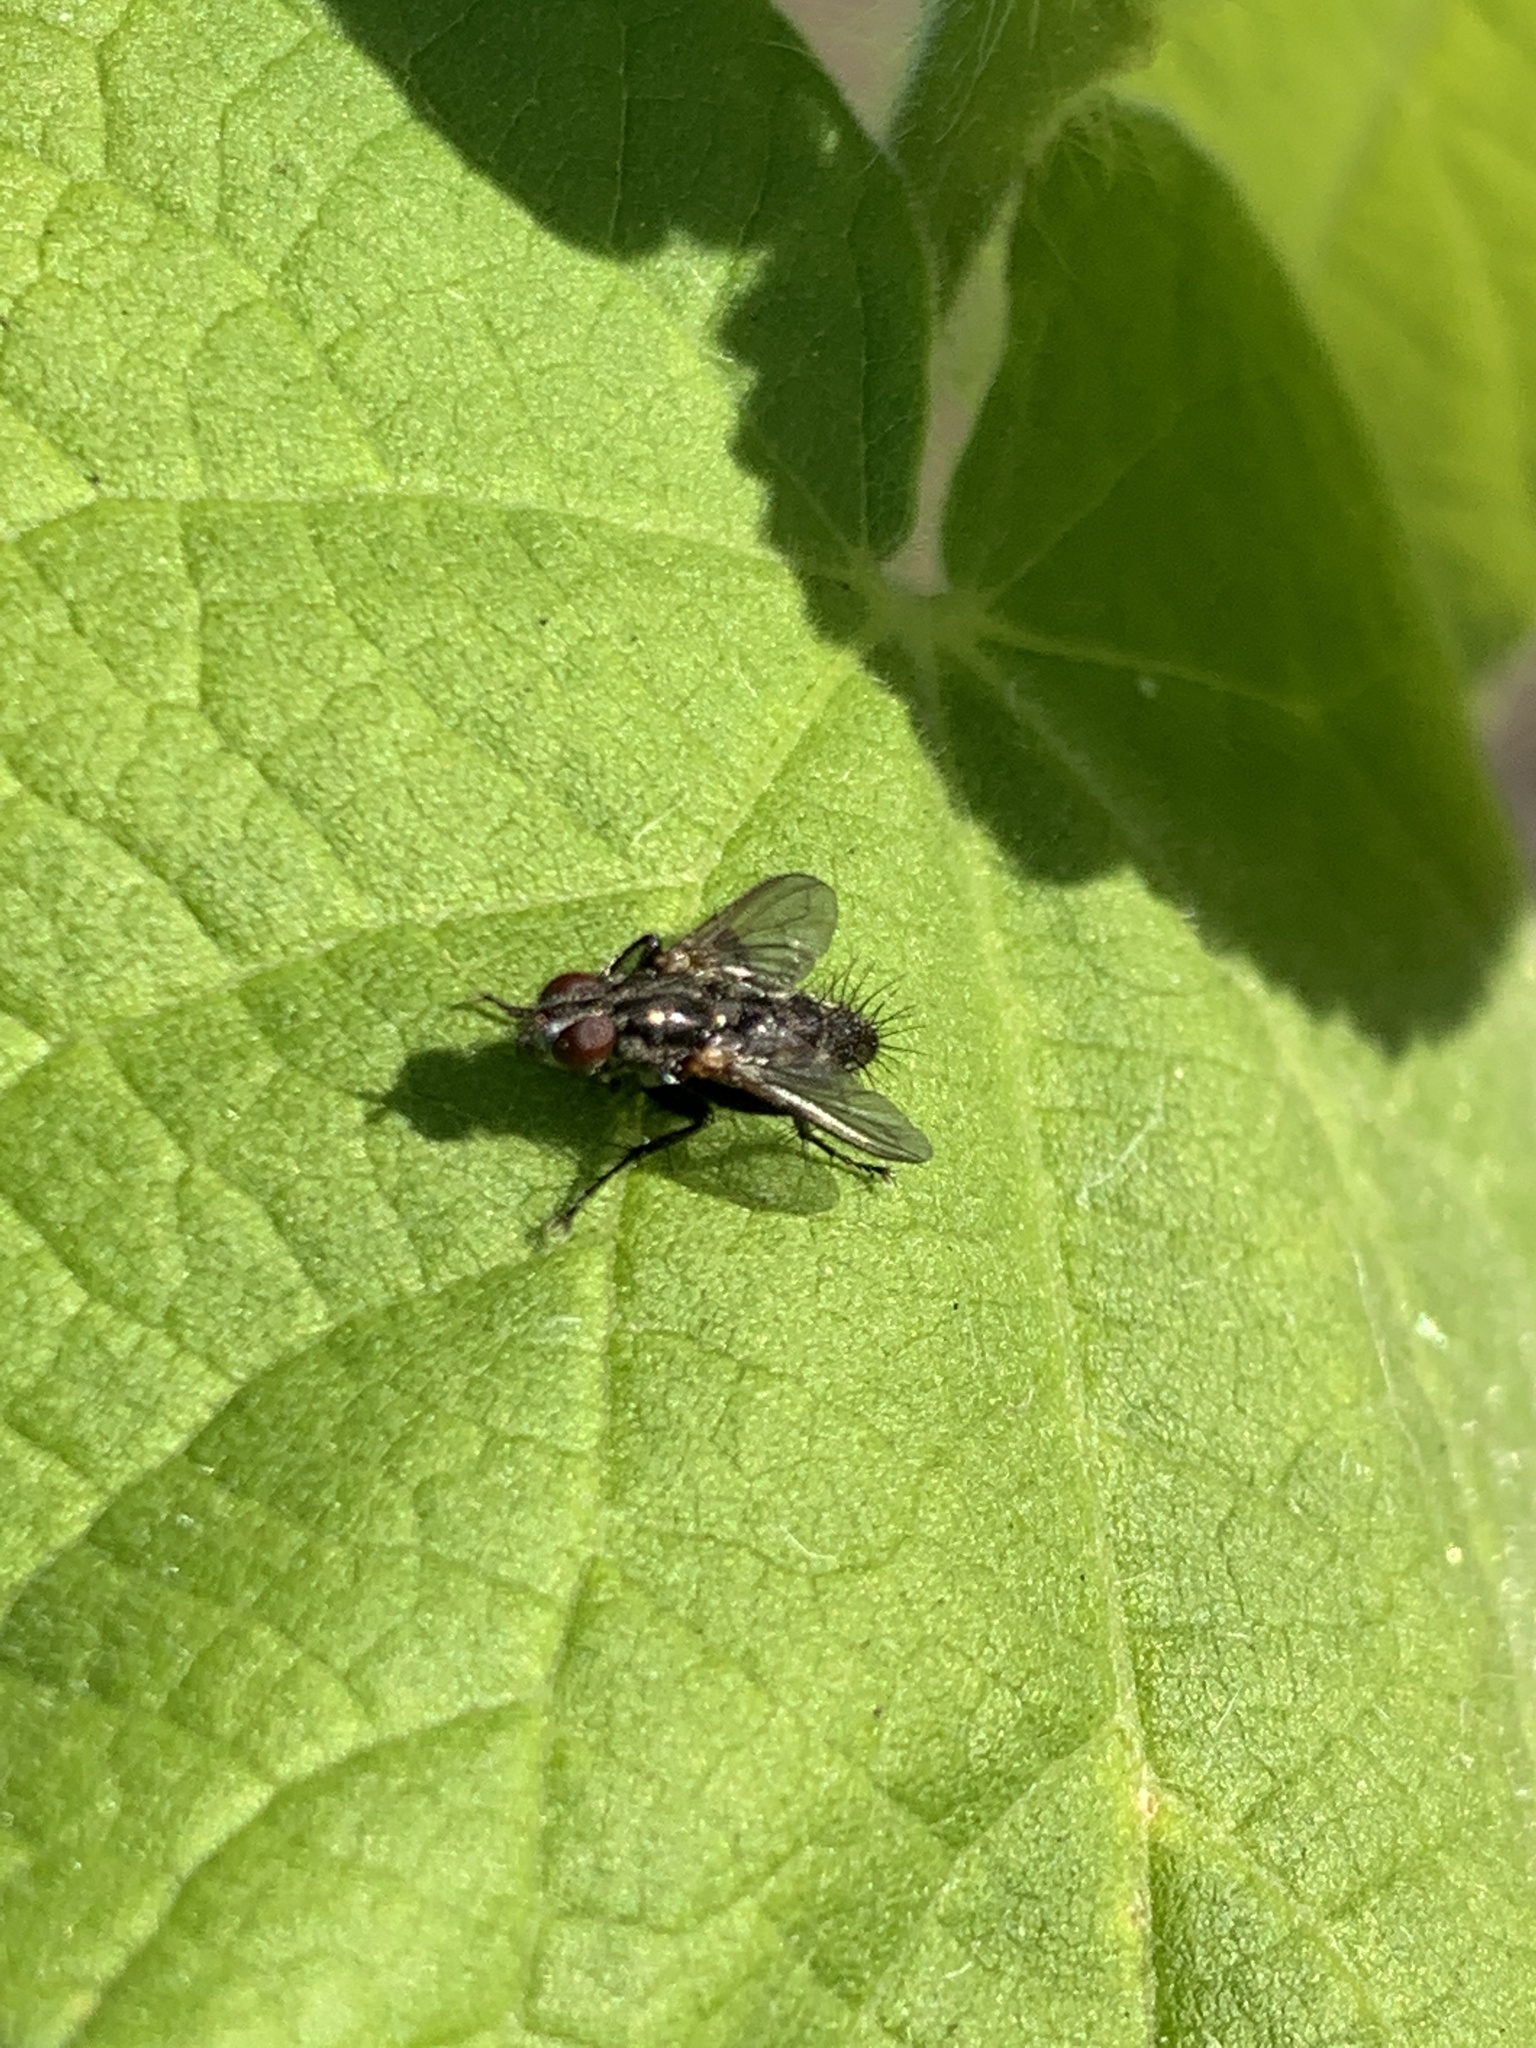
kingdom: Animalia
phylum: Arthropoda
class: Insecta
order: Diptera
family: Calliphoridae
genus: Stevenia
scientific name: Stevenia deceptoria
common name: Grizzled woodlouse-fly
